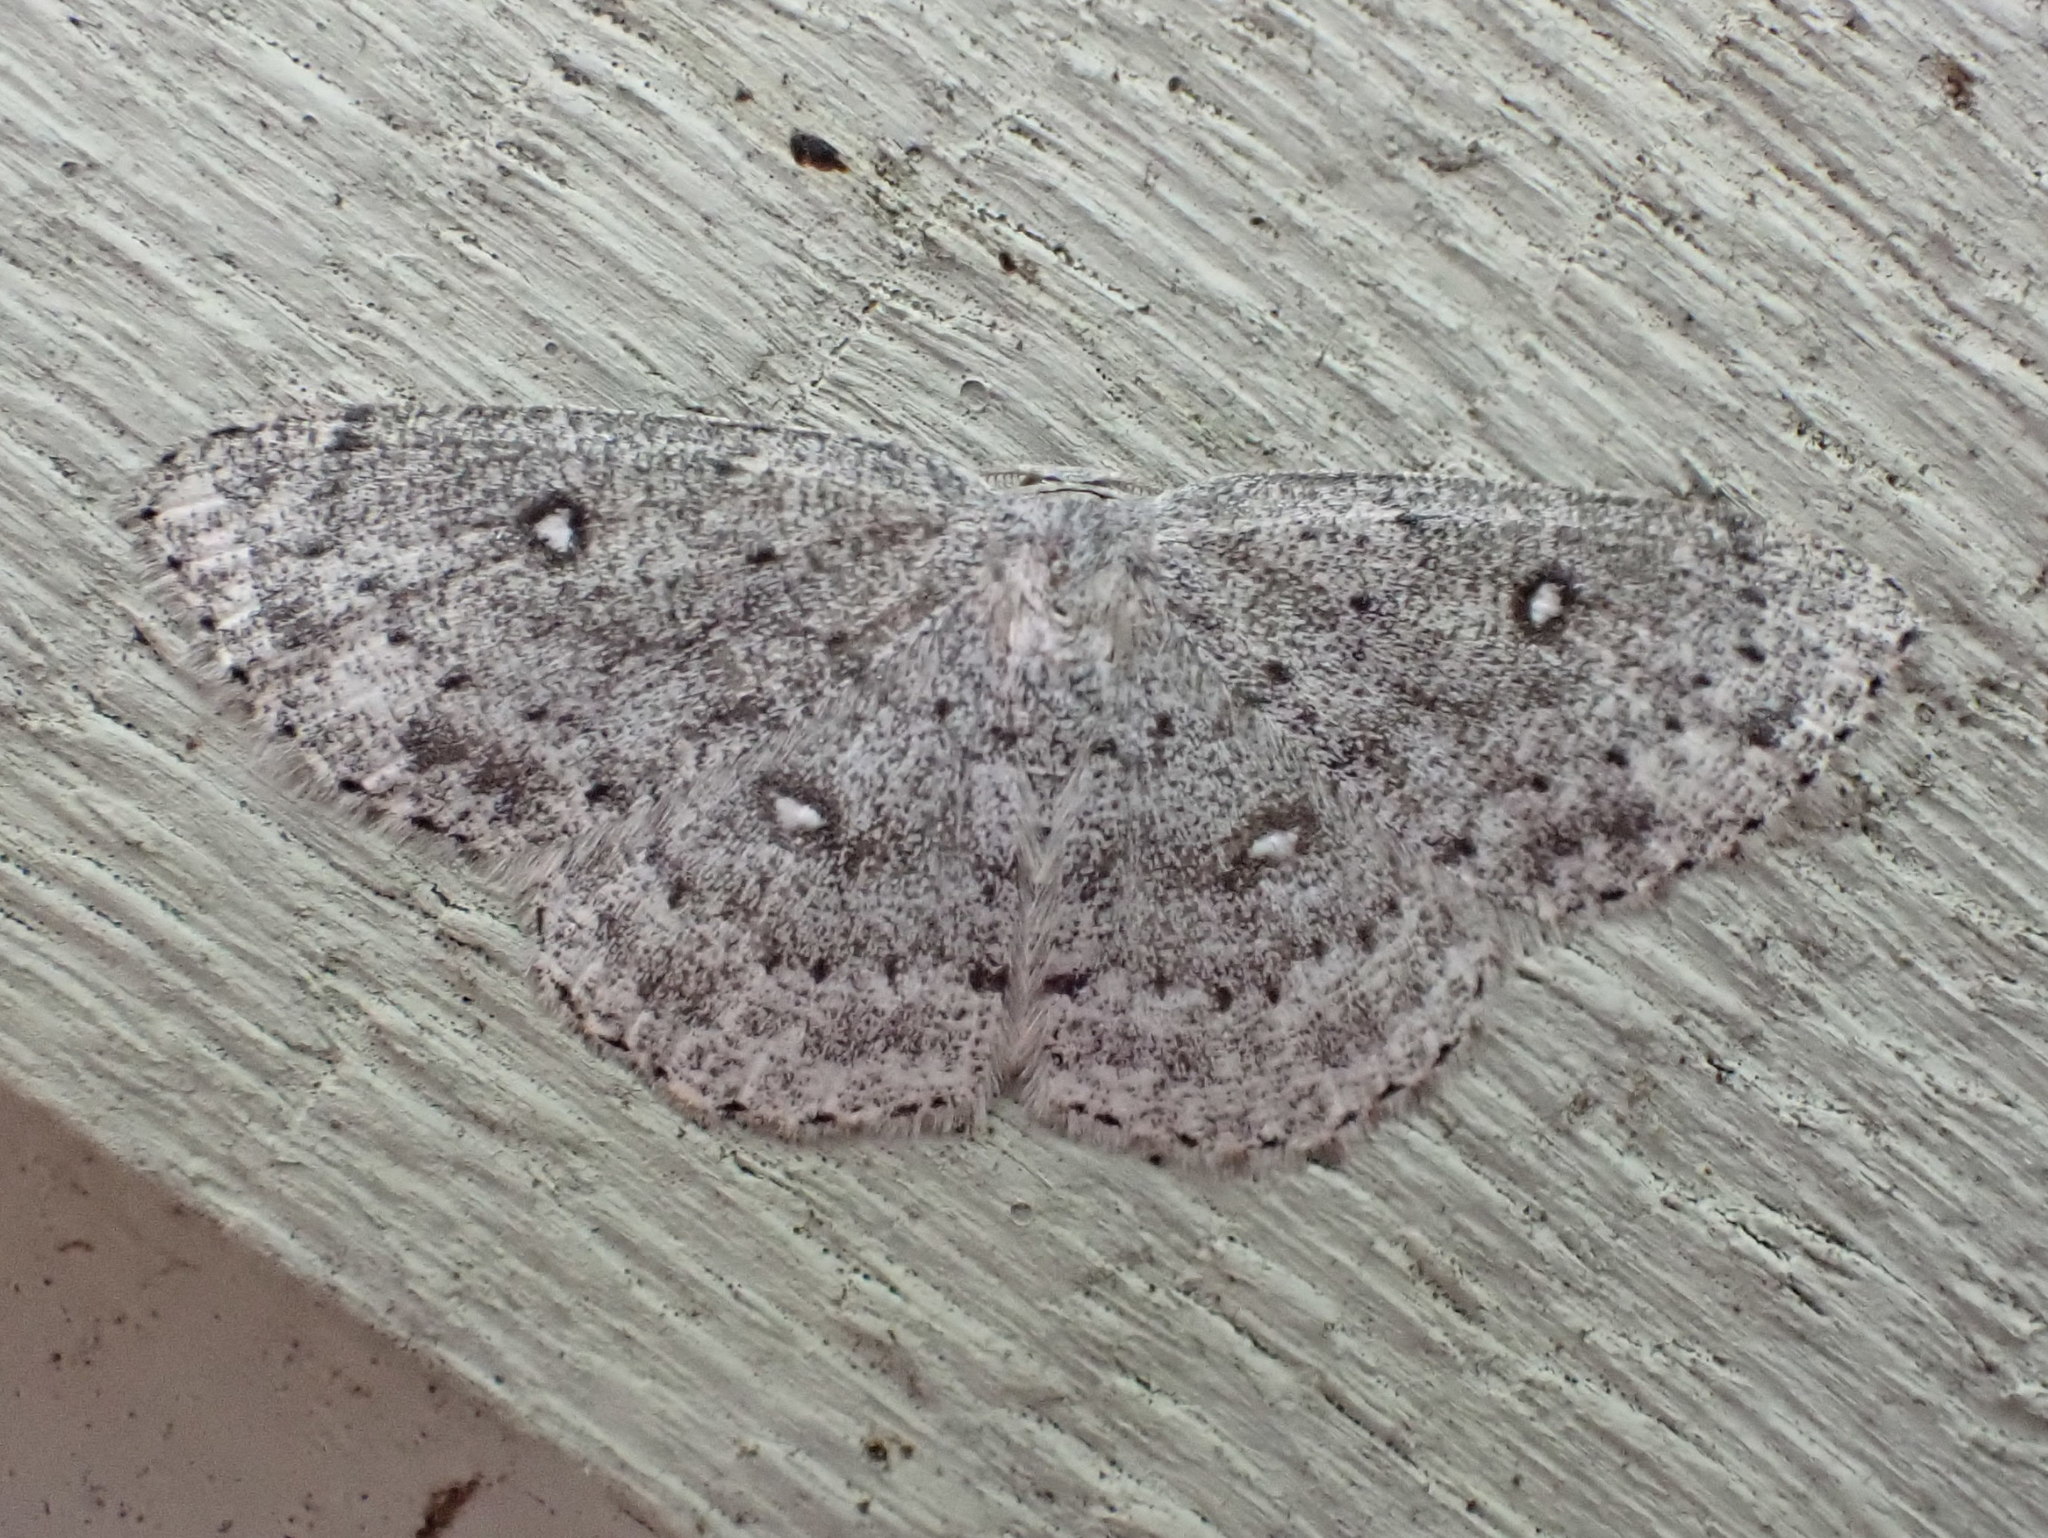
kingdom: Animalia
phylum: Arthropoda
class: Insecta
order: Lepidoptera
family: Geometridae
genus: Cyclophora
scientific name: Cyclophora pendulinaria
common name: Sweet fern geometer
